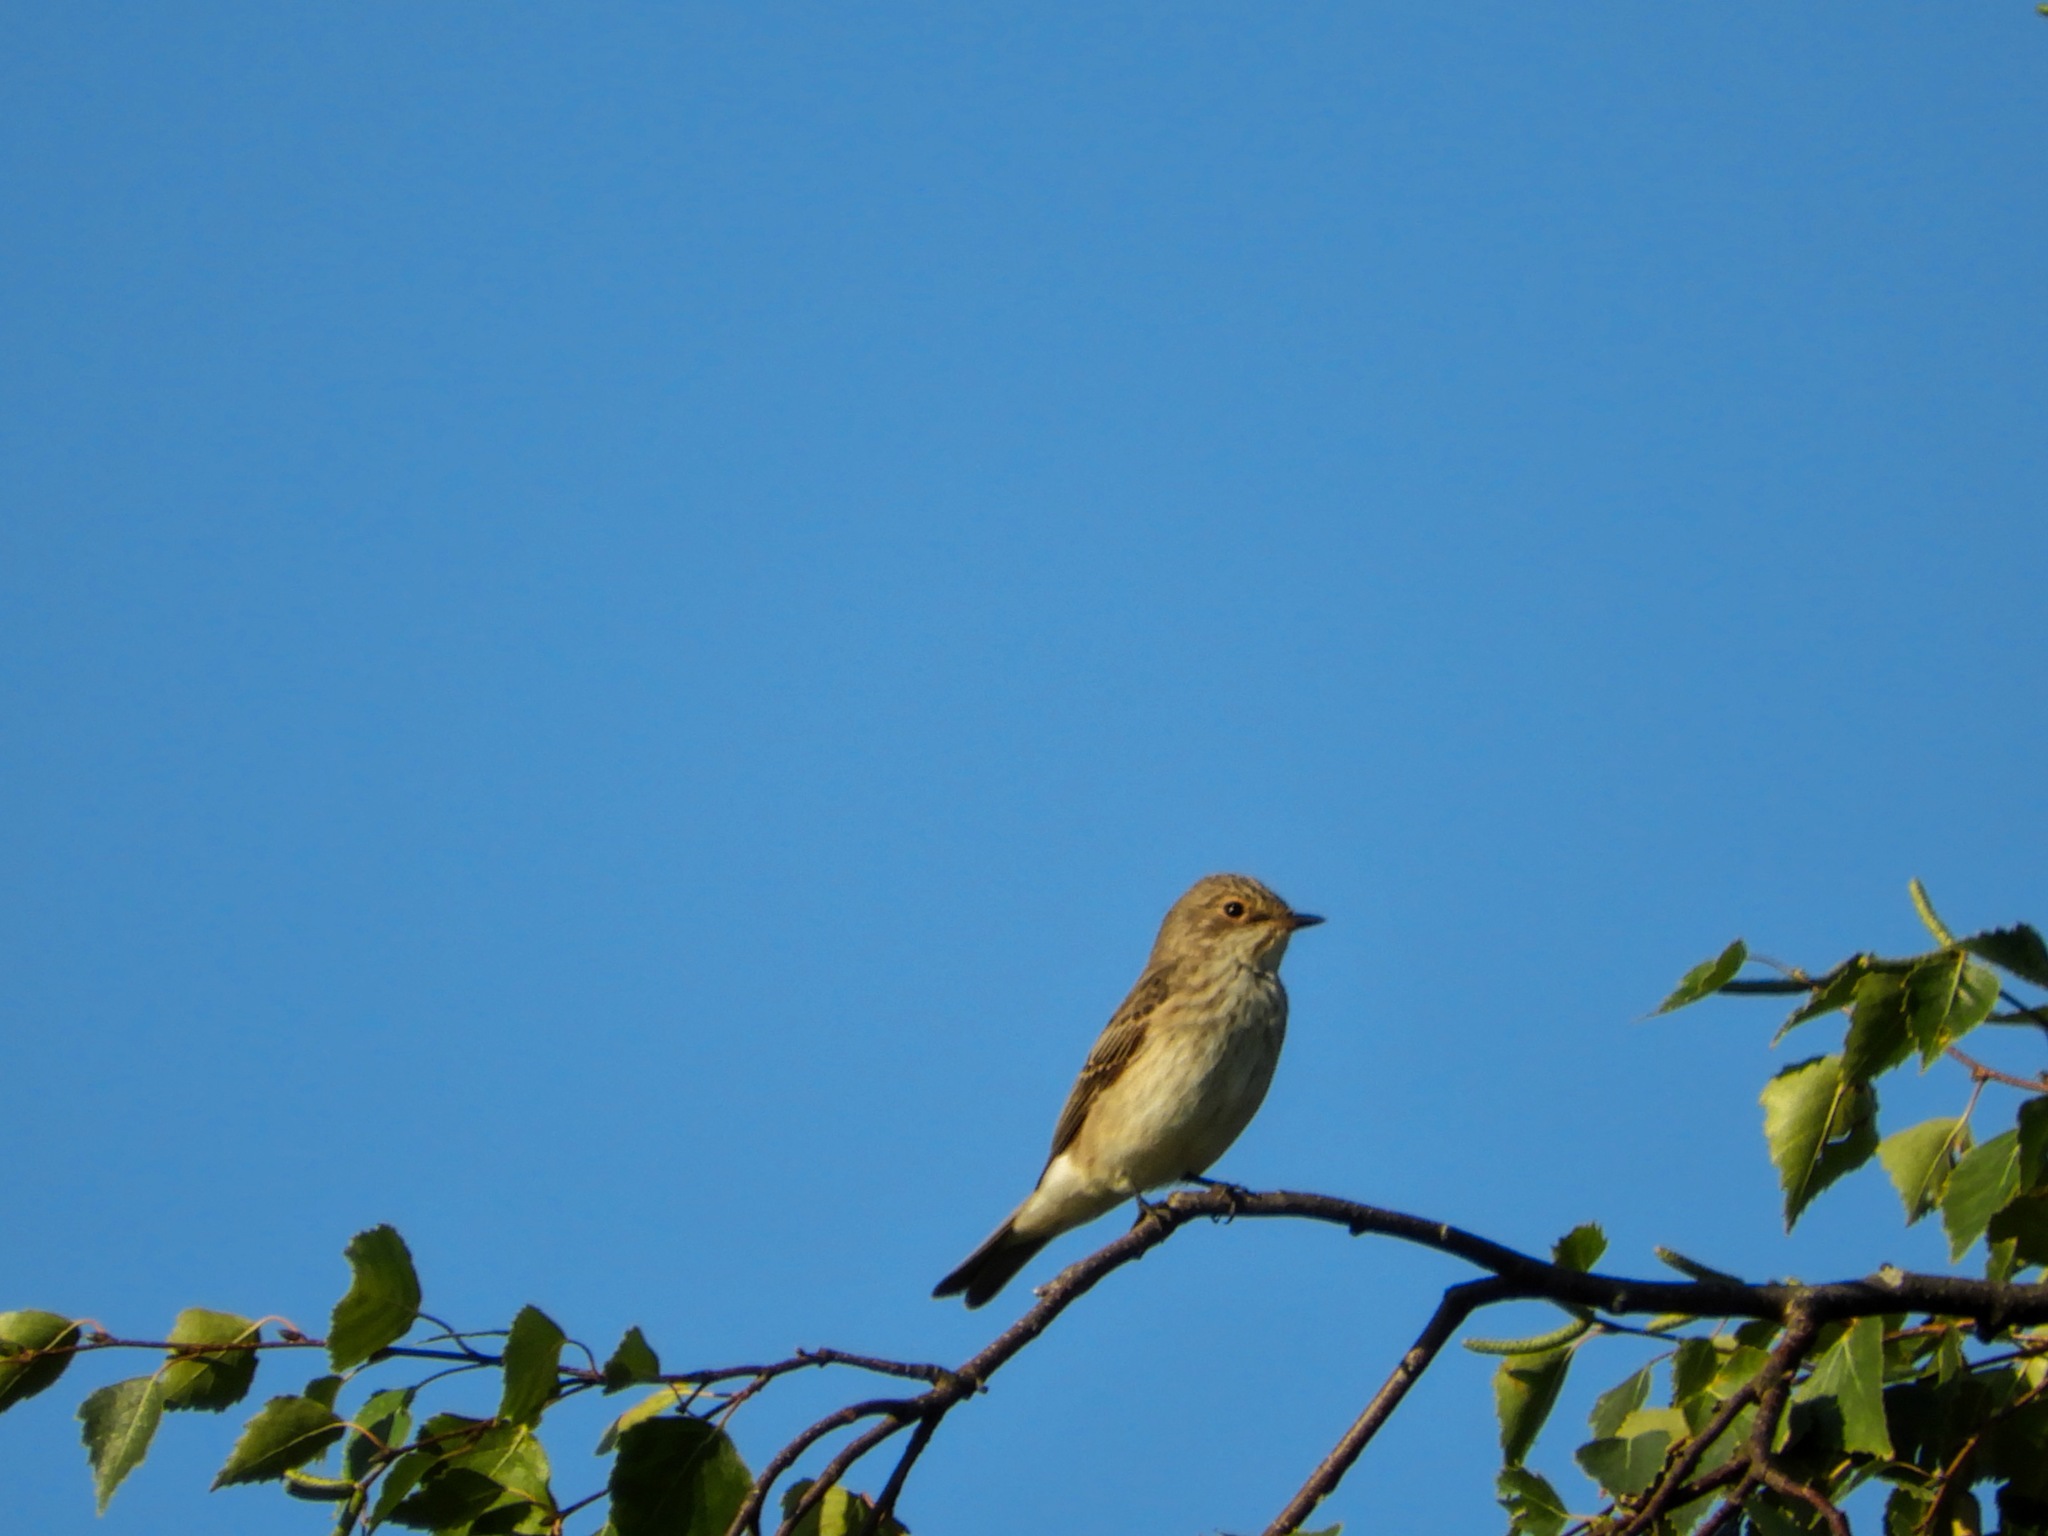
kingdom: Animalia
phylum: Chordata
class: Aves
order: Passeriformes
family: Muscicapidae
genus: Muscicapa
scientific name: Muscicapa striata
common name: Spotted flycatcher
